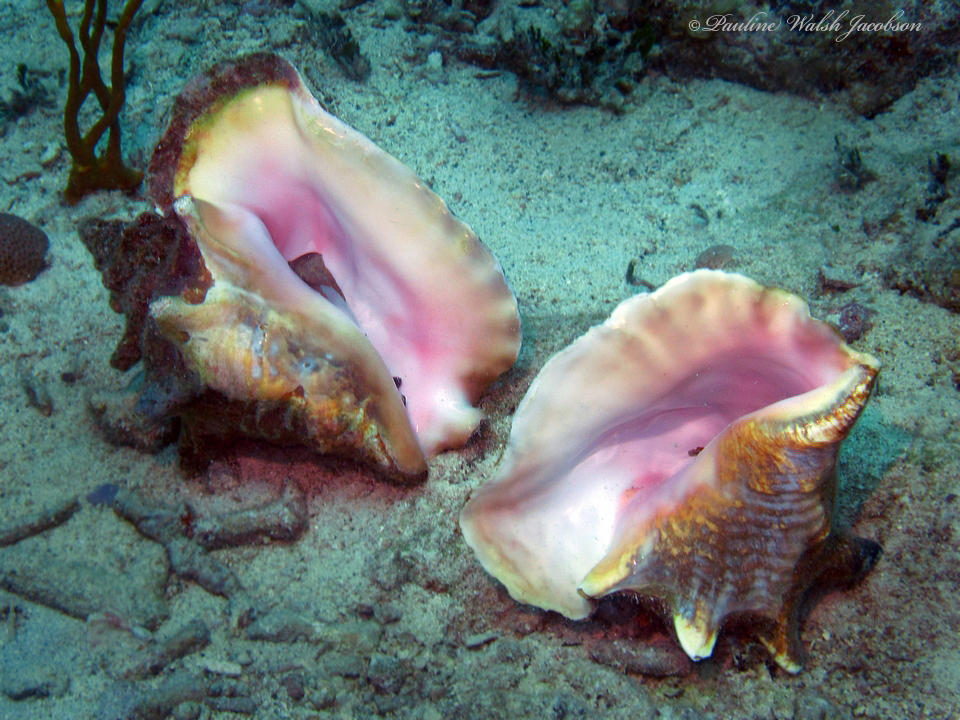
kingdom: Animalia
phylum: Mollusca
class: Gastropoda
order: Littorinimorpha
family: Strombidae
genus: Aliger
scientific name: Aliger gigas
